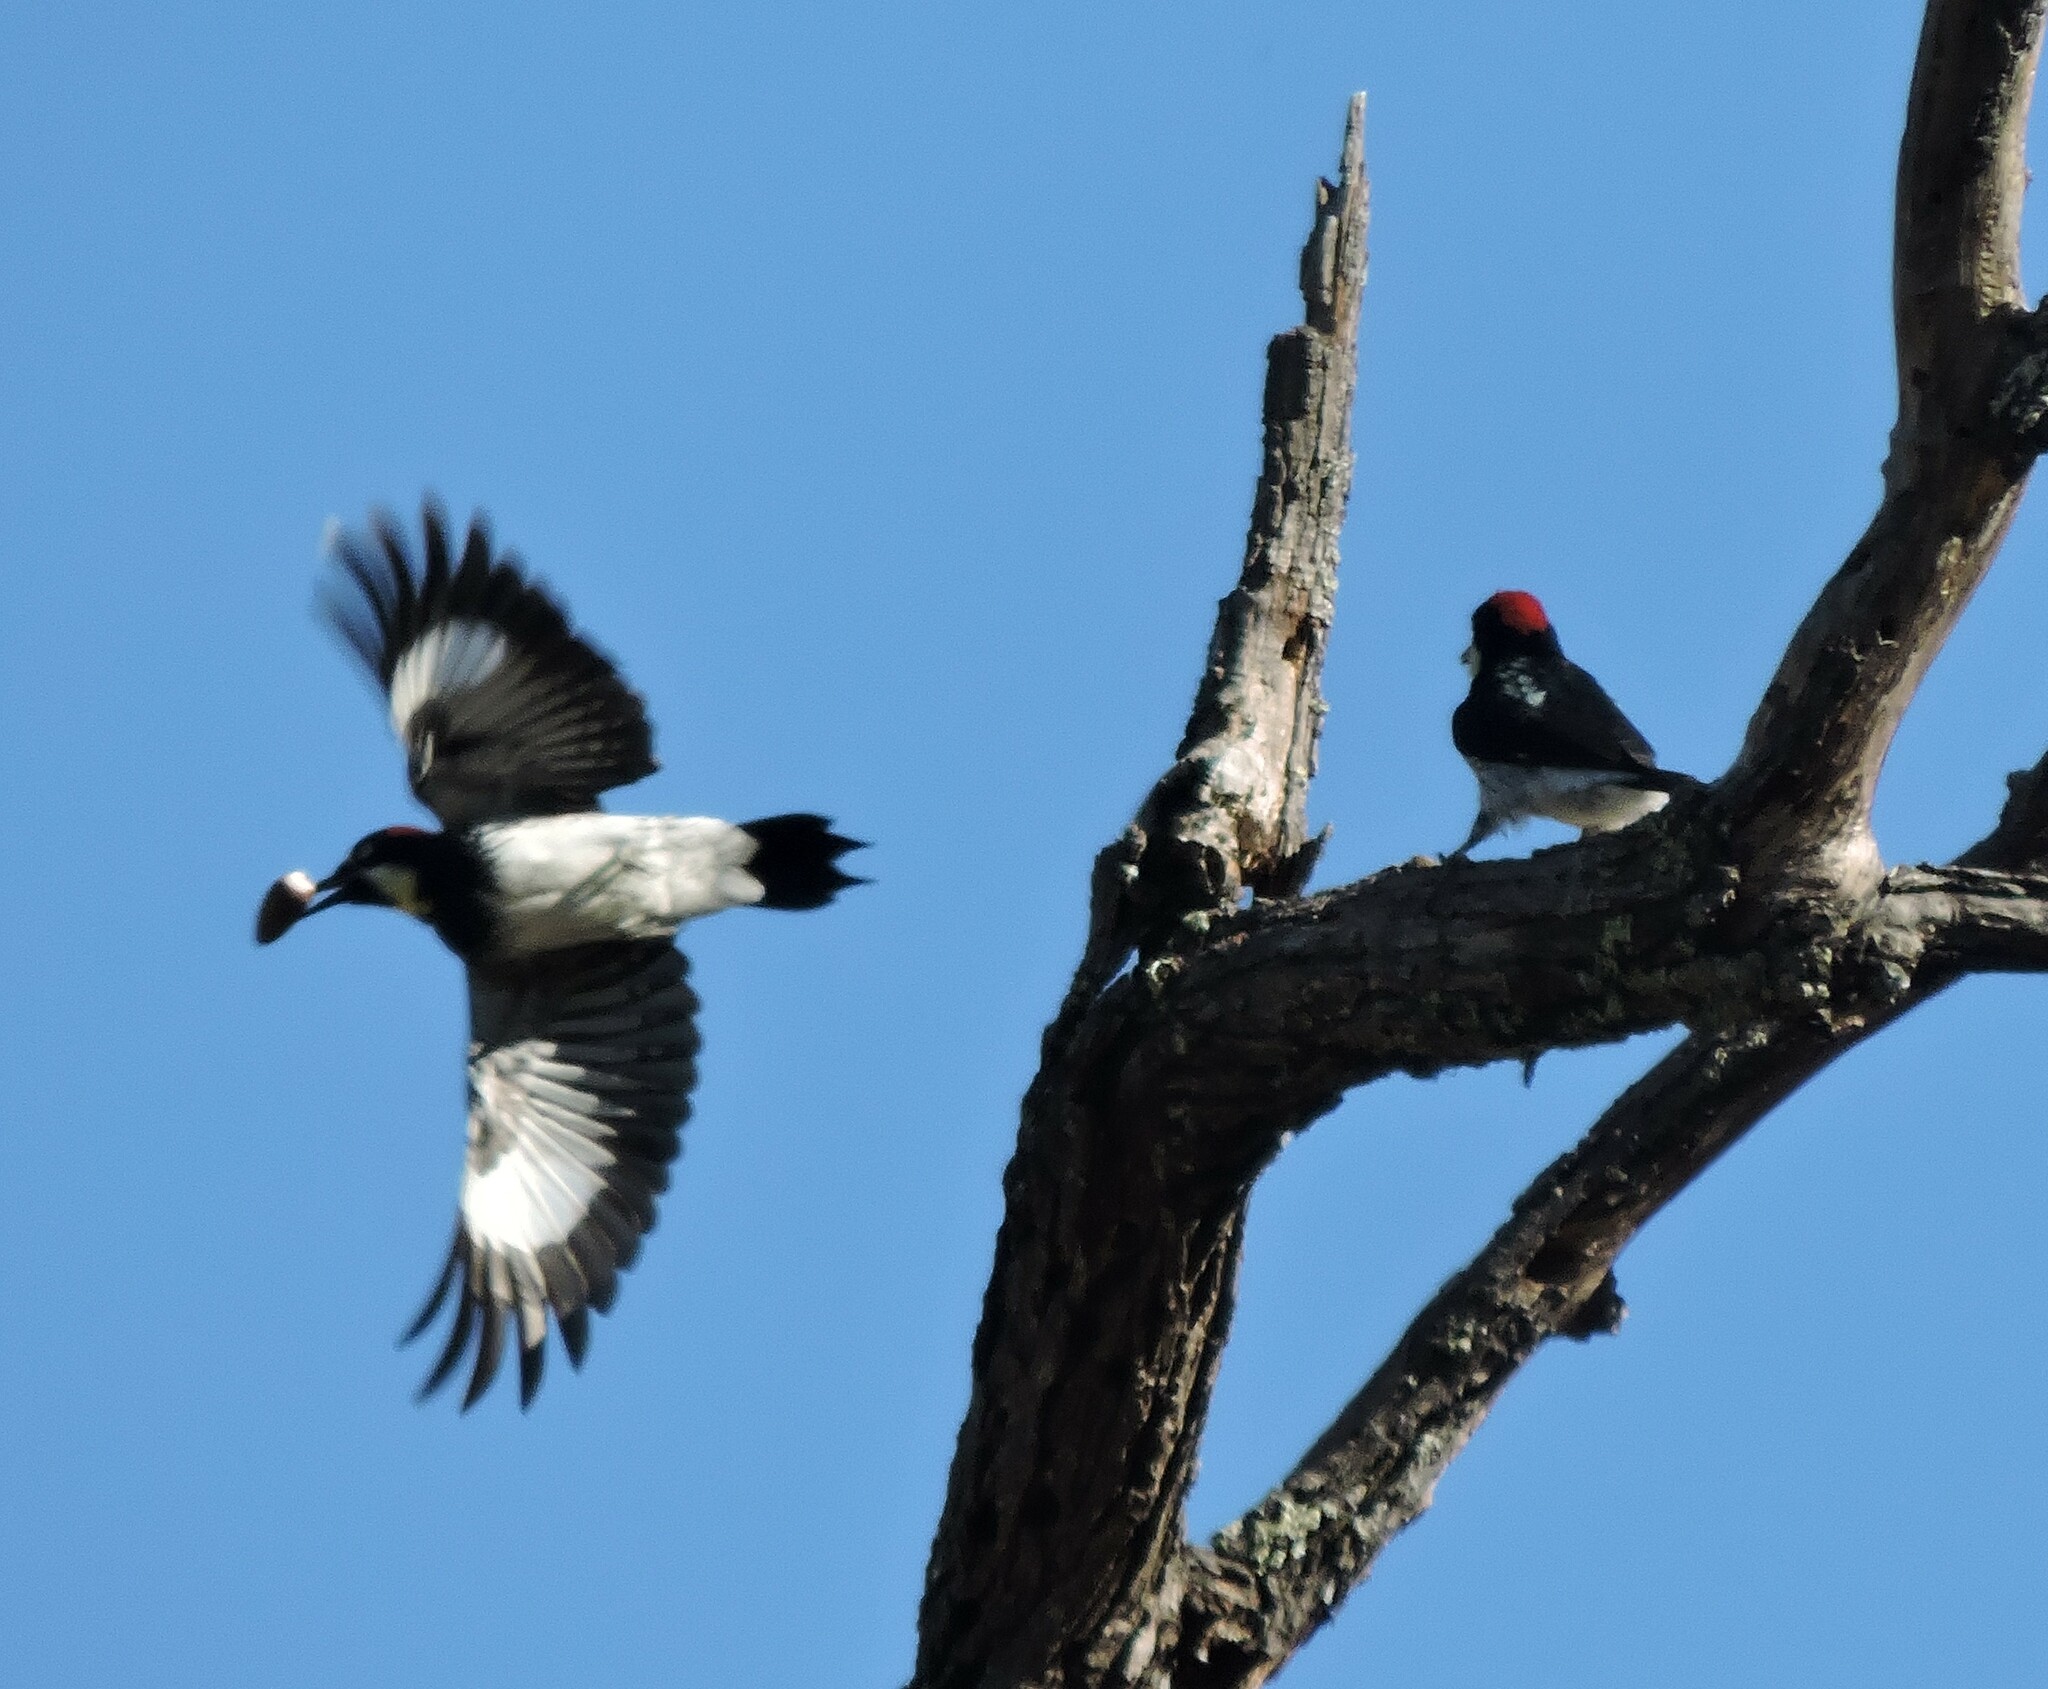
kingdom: Animalia
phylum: Chordata
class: Aves
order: Piciformes
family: Picidae
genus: Melanerpes
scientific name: Melanerpes formicivorus
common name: Acorn woodpecker
